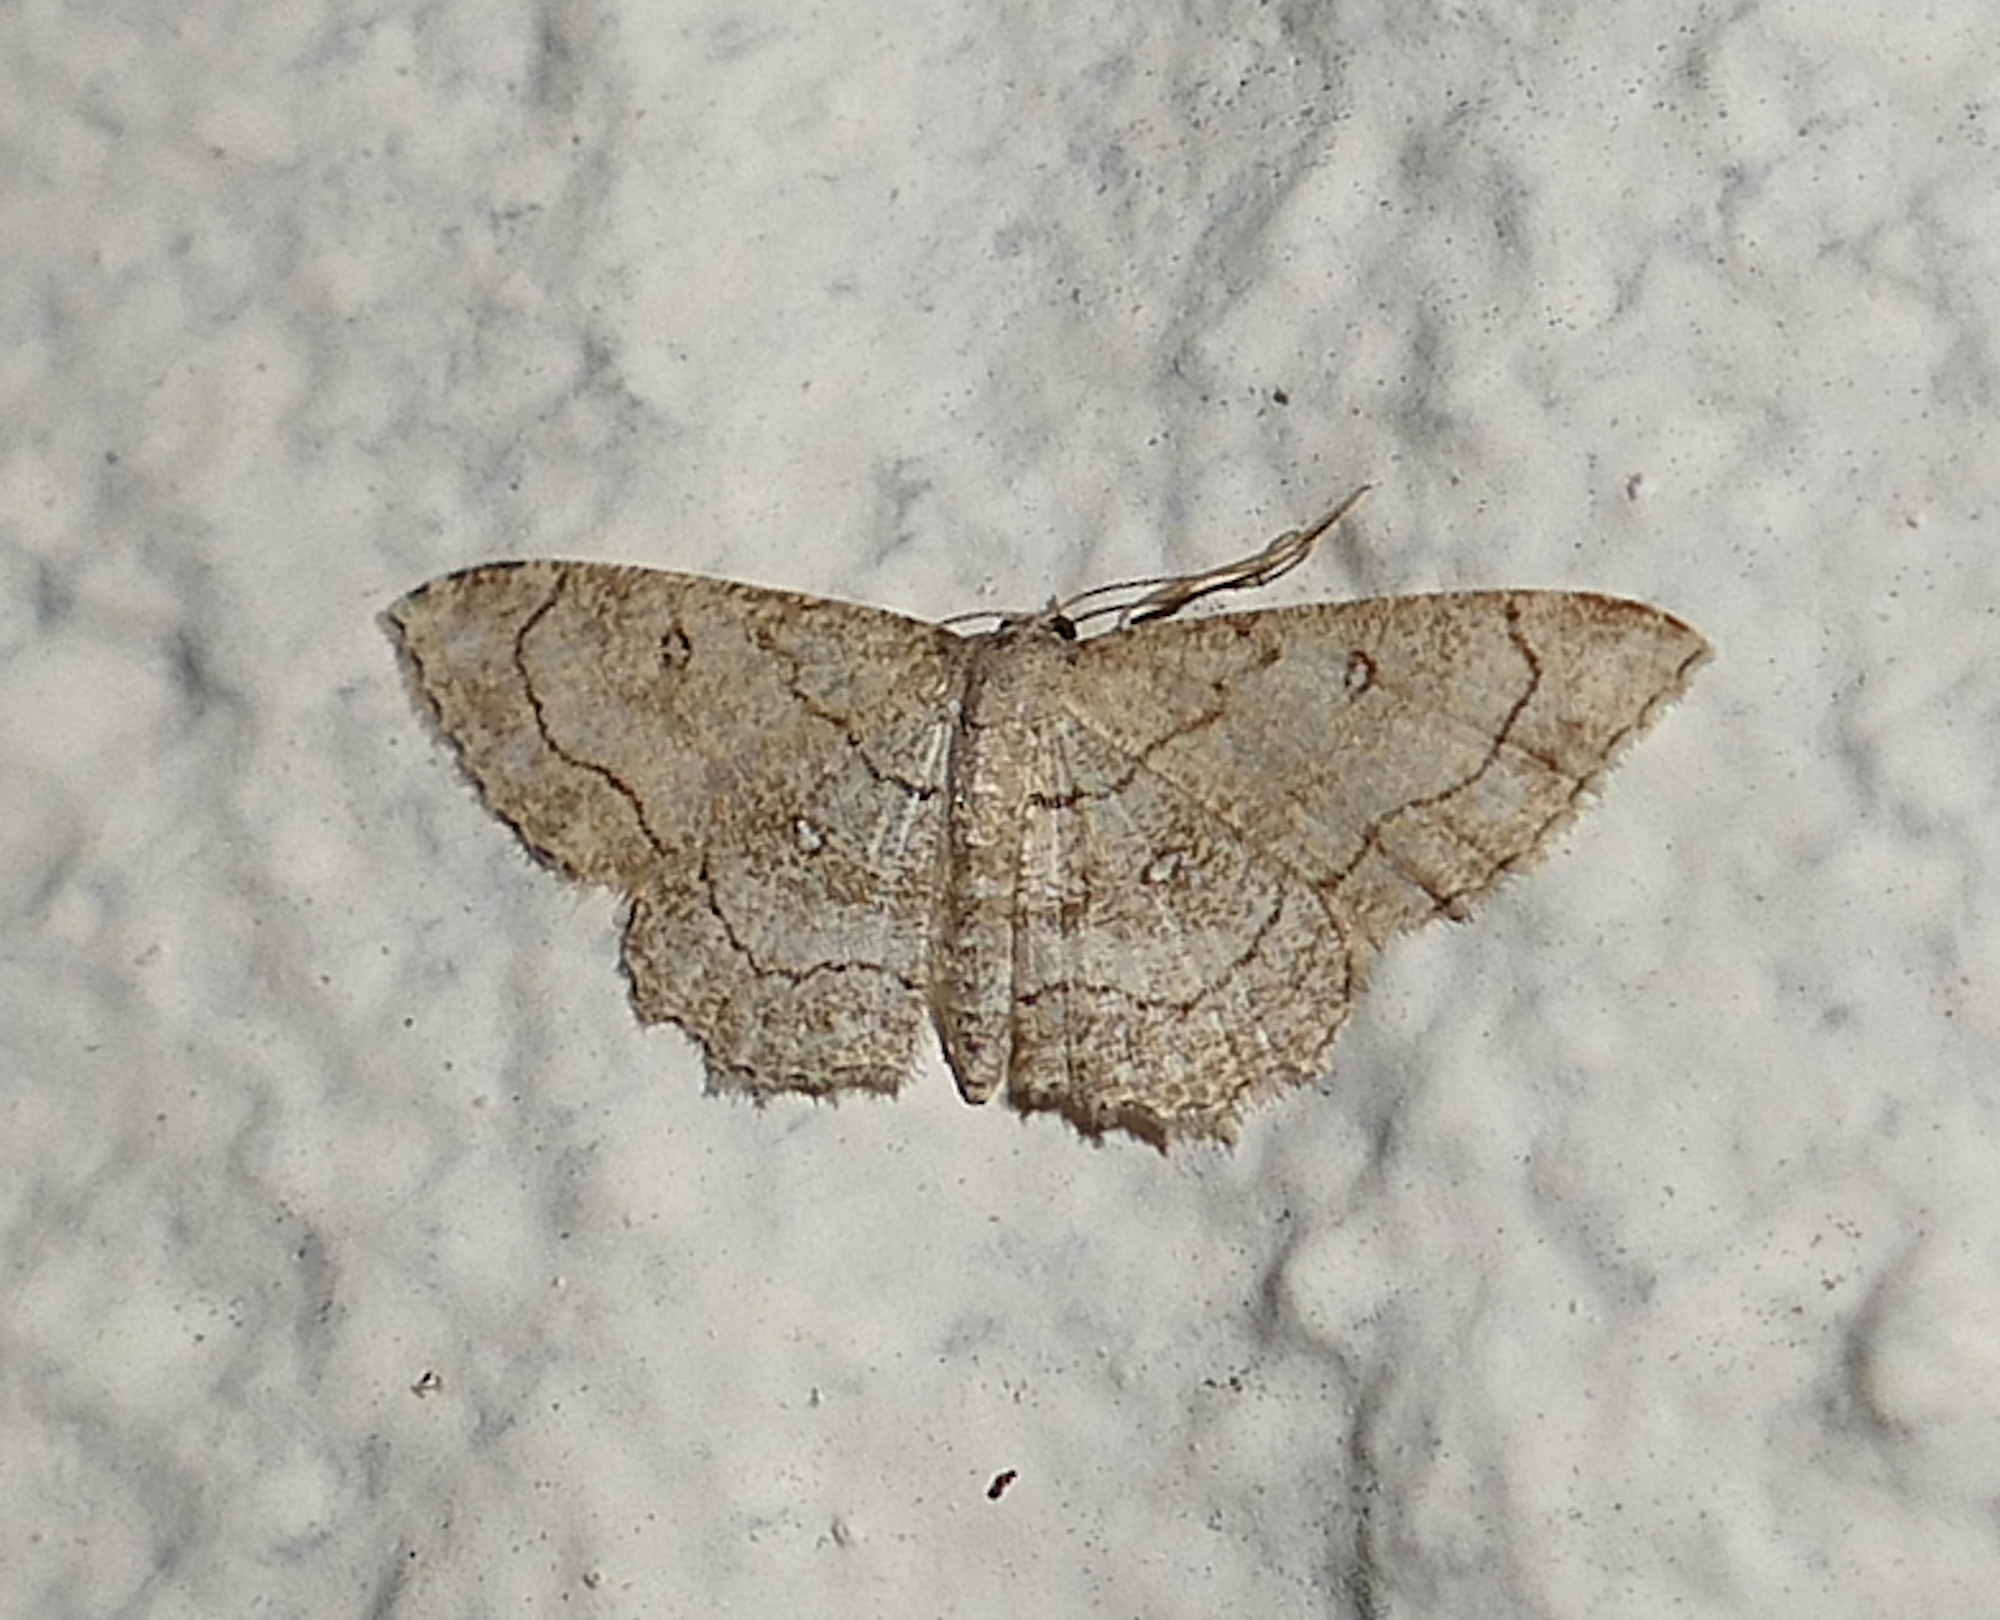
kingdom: Animalia
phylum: Arthropoda
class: Insecta
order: Lepidoptera
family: Geometridae
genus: Cyclophora
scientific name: Cyclophora nanaria
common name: Cankerworm
